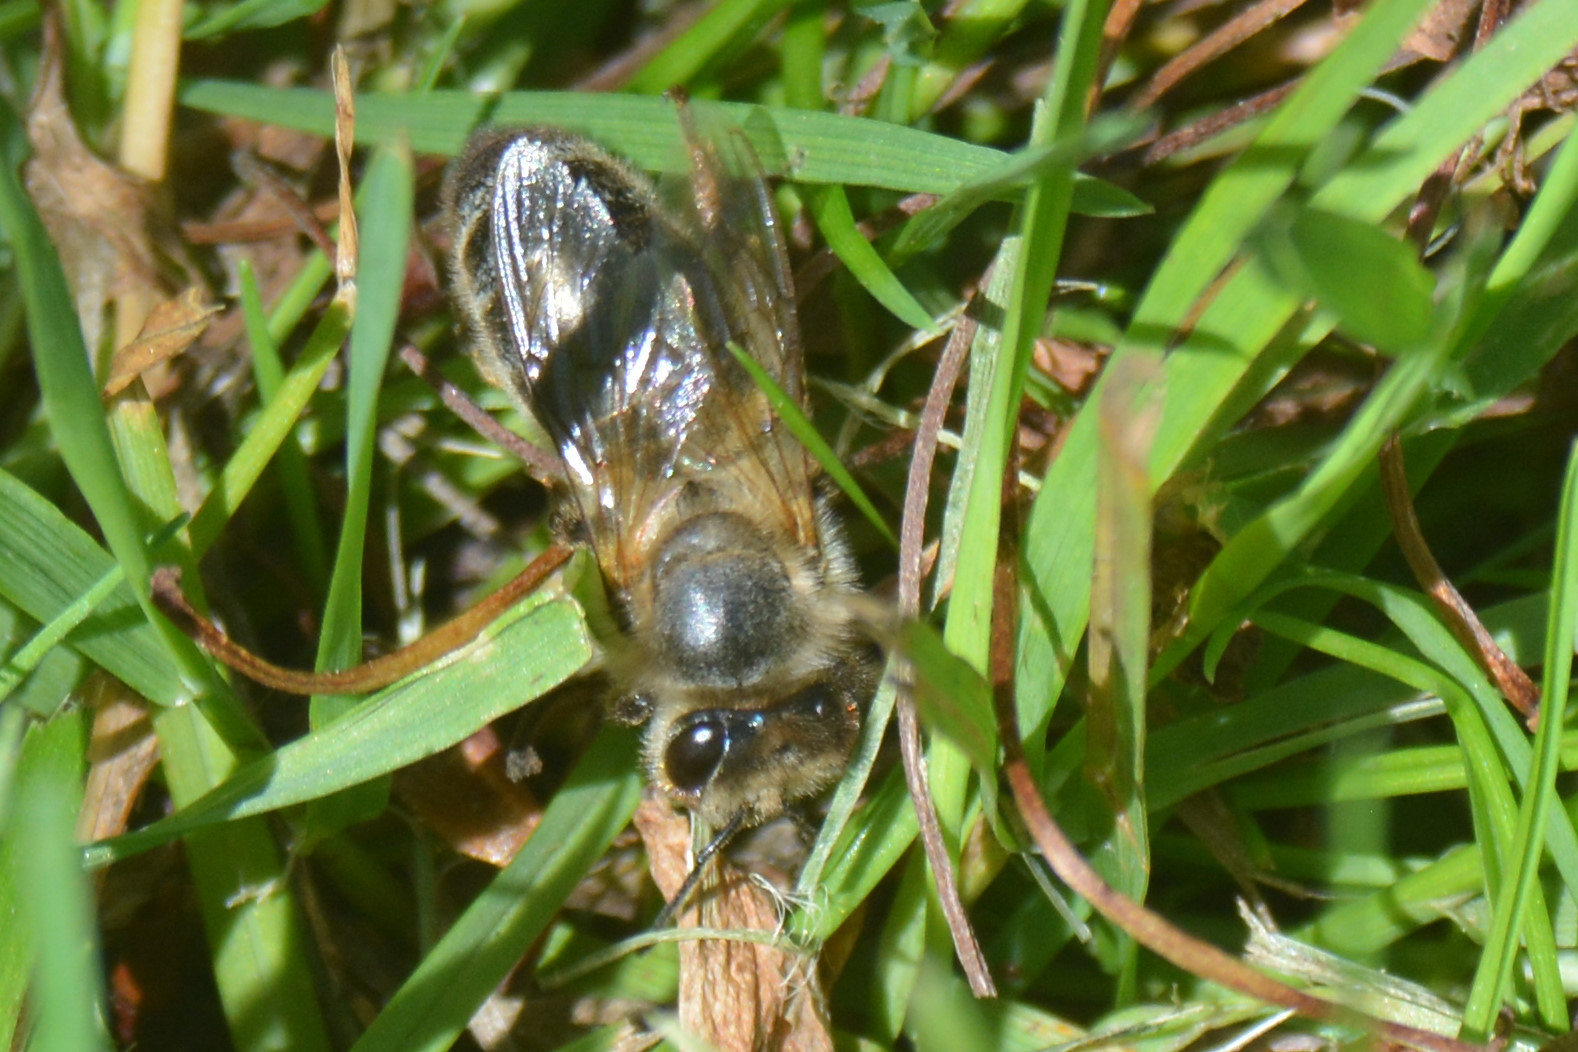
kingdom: Animalia
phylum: Arthropoda
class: Insecta
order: Hymenoptera
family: Apidae
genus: Apis
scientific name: Apis mellifera
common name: Honey bee
